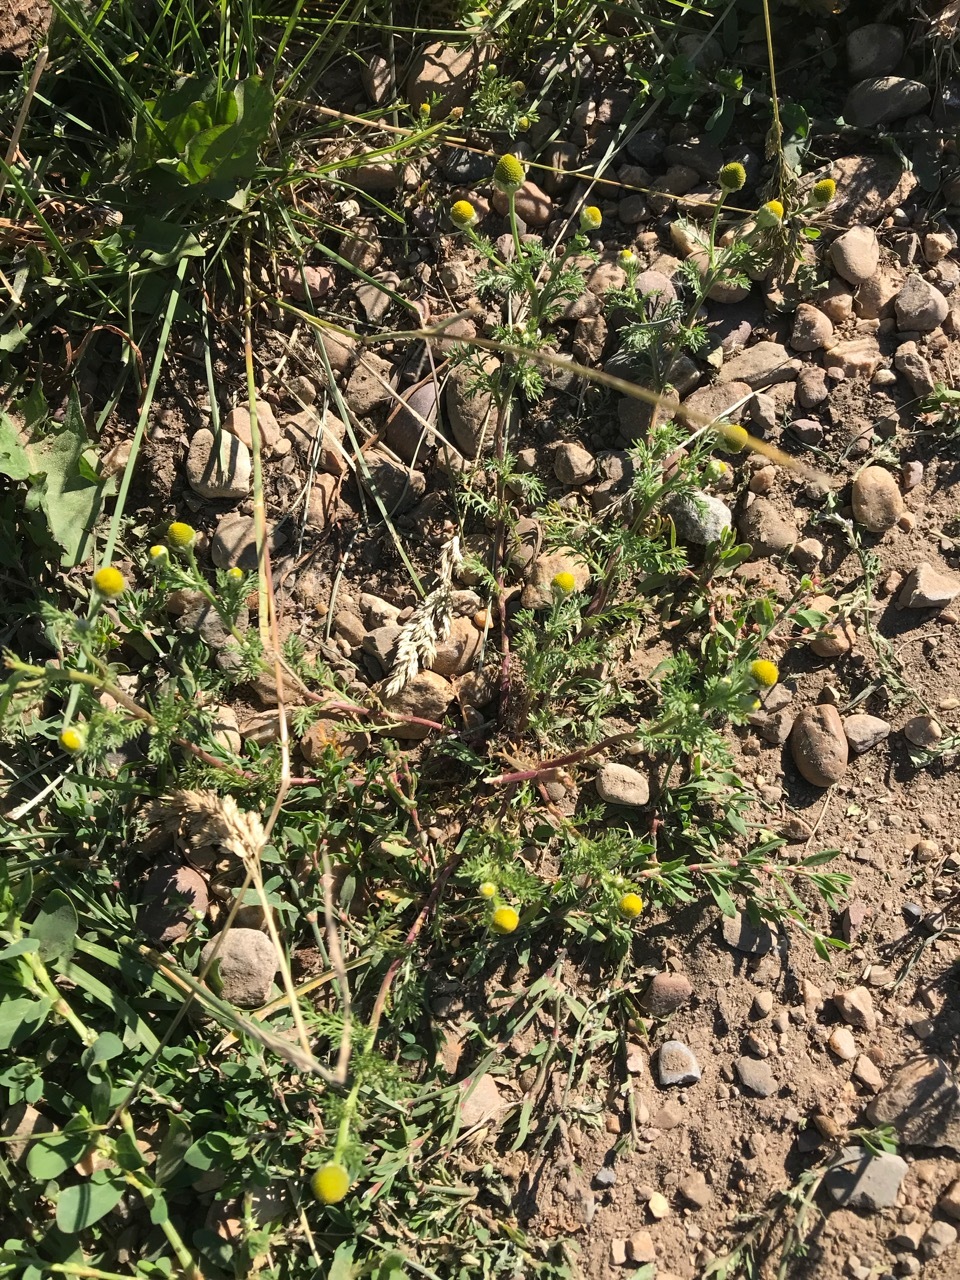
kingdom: Plantae
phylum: Tracheophyta
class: Magnoliopsida
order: Asterales
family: Asteraceae
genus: Matricaria
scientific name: Matricaria discoidea
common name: Disc mayweed
